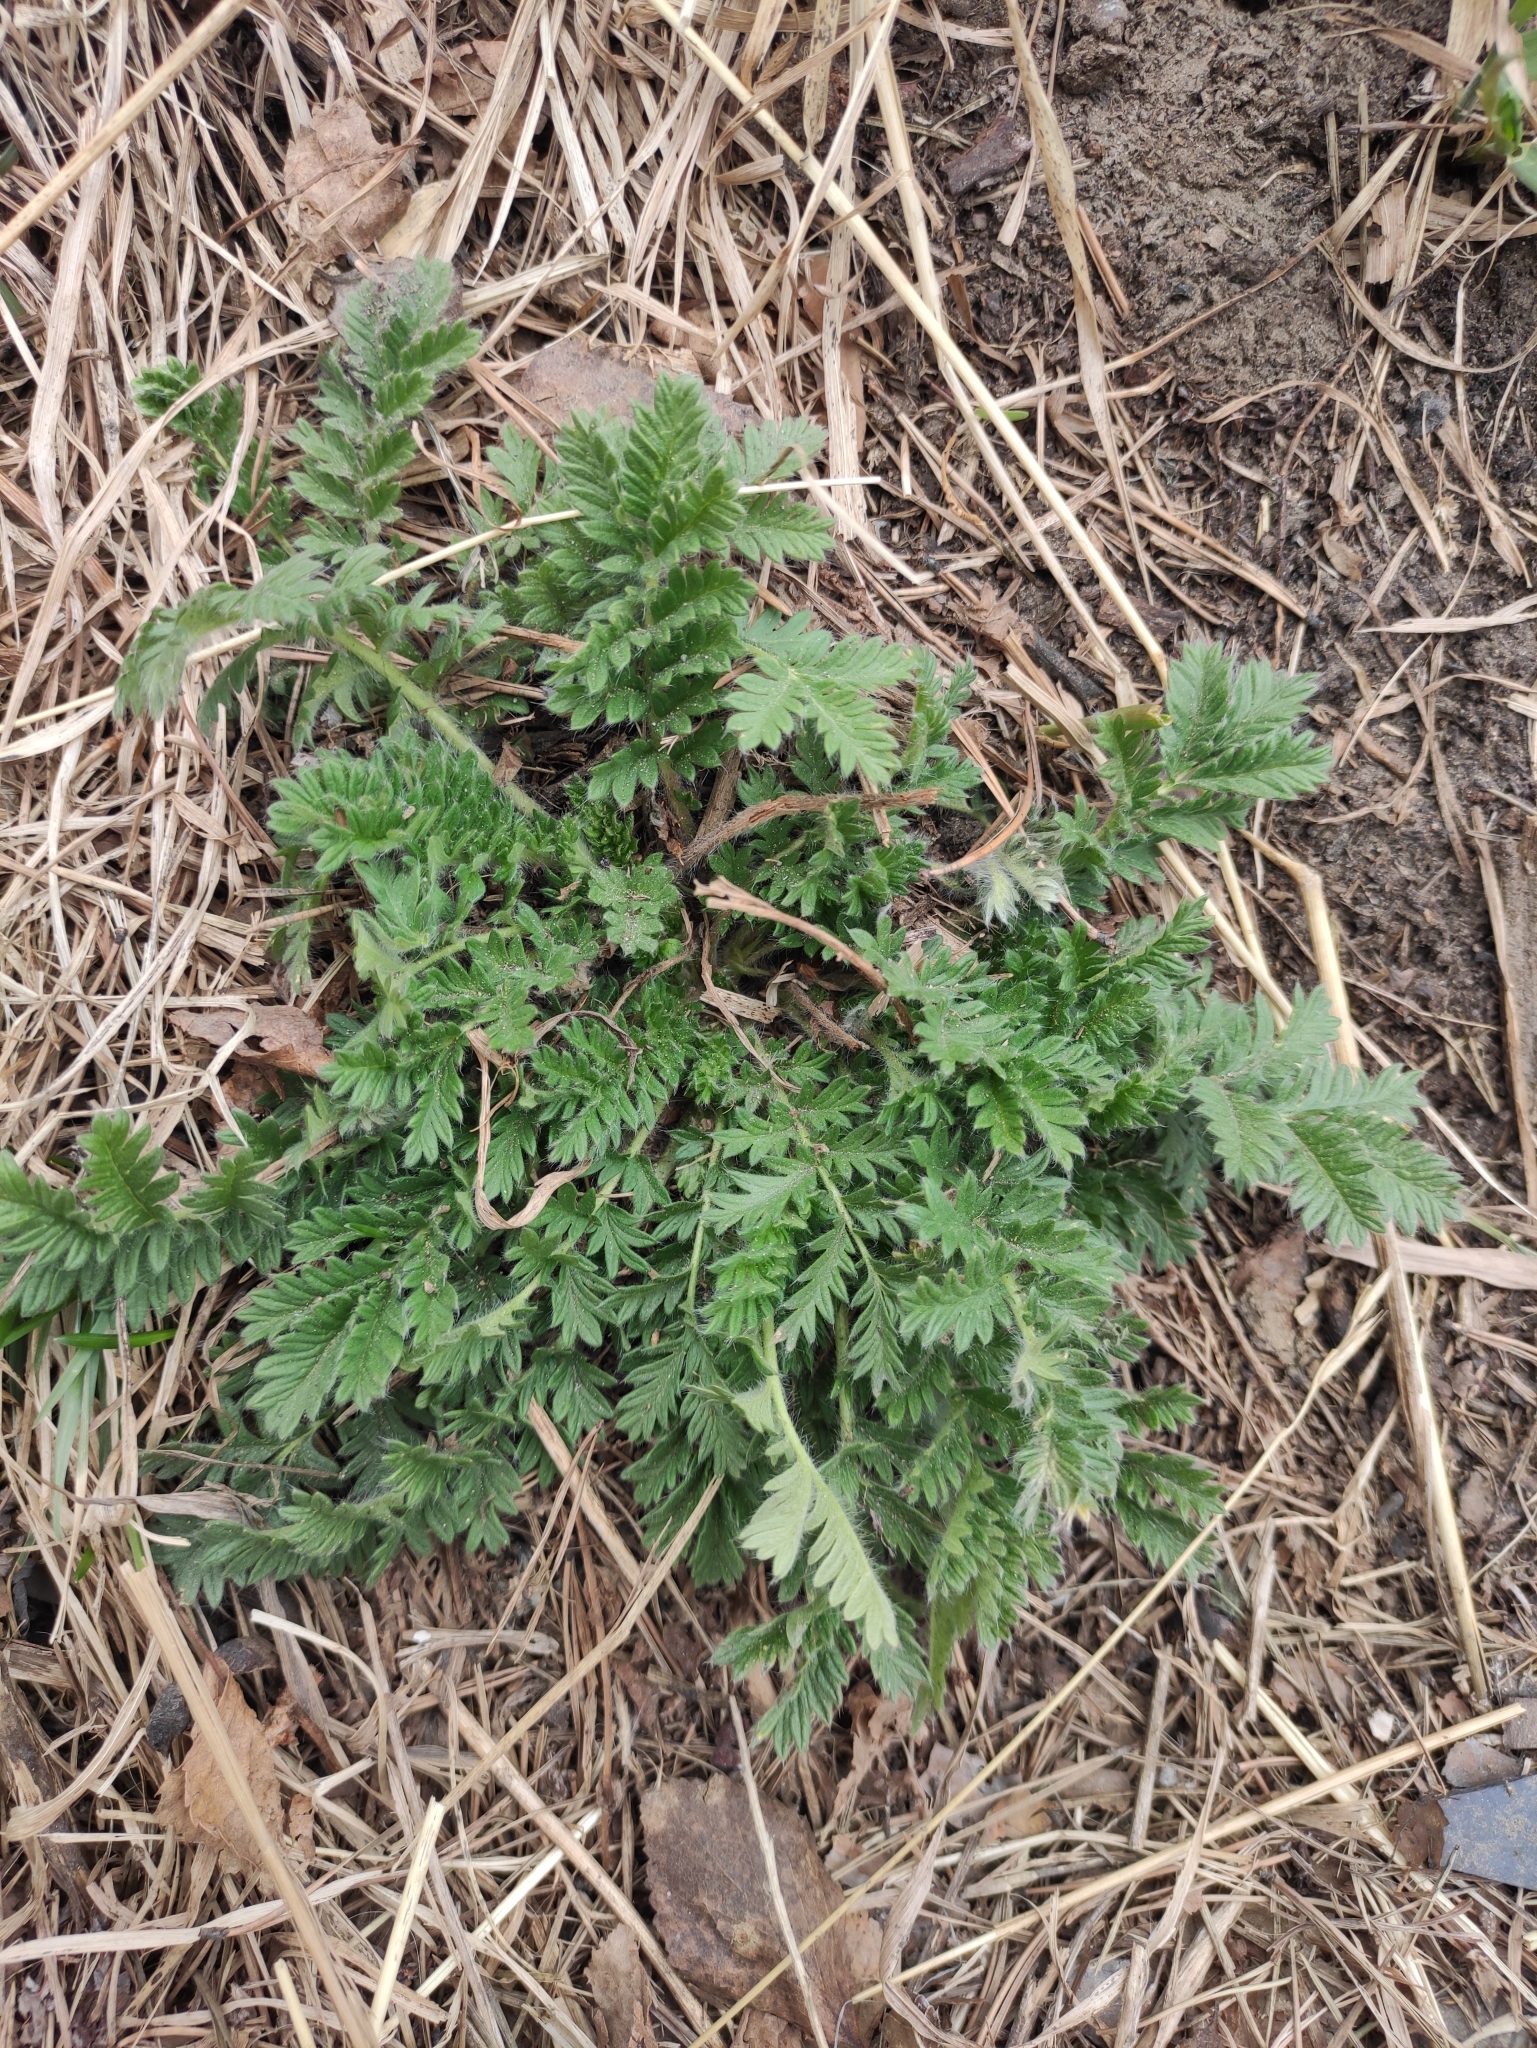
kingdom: Plantae
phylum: Tracheophyta
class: Magnoliopsida
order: Rosales
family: Rosaceae
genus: Potentilla
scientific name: Potentilla tanacetifolia
